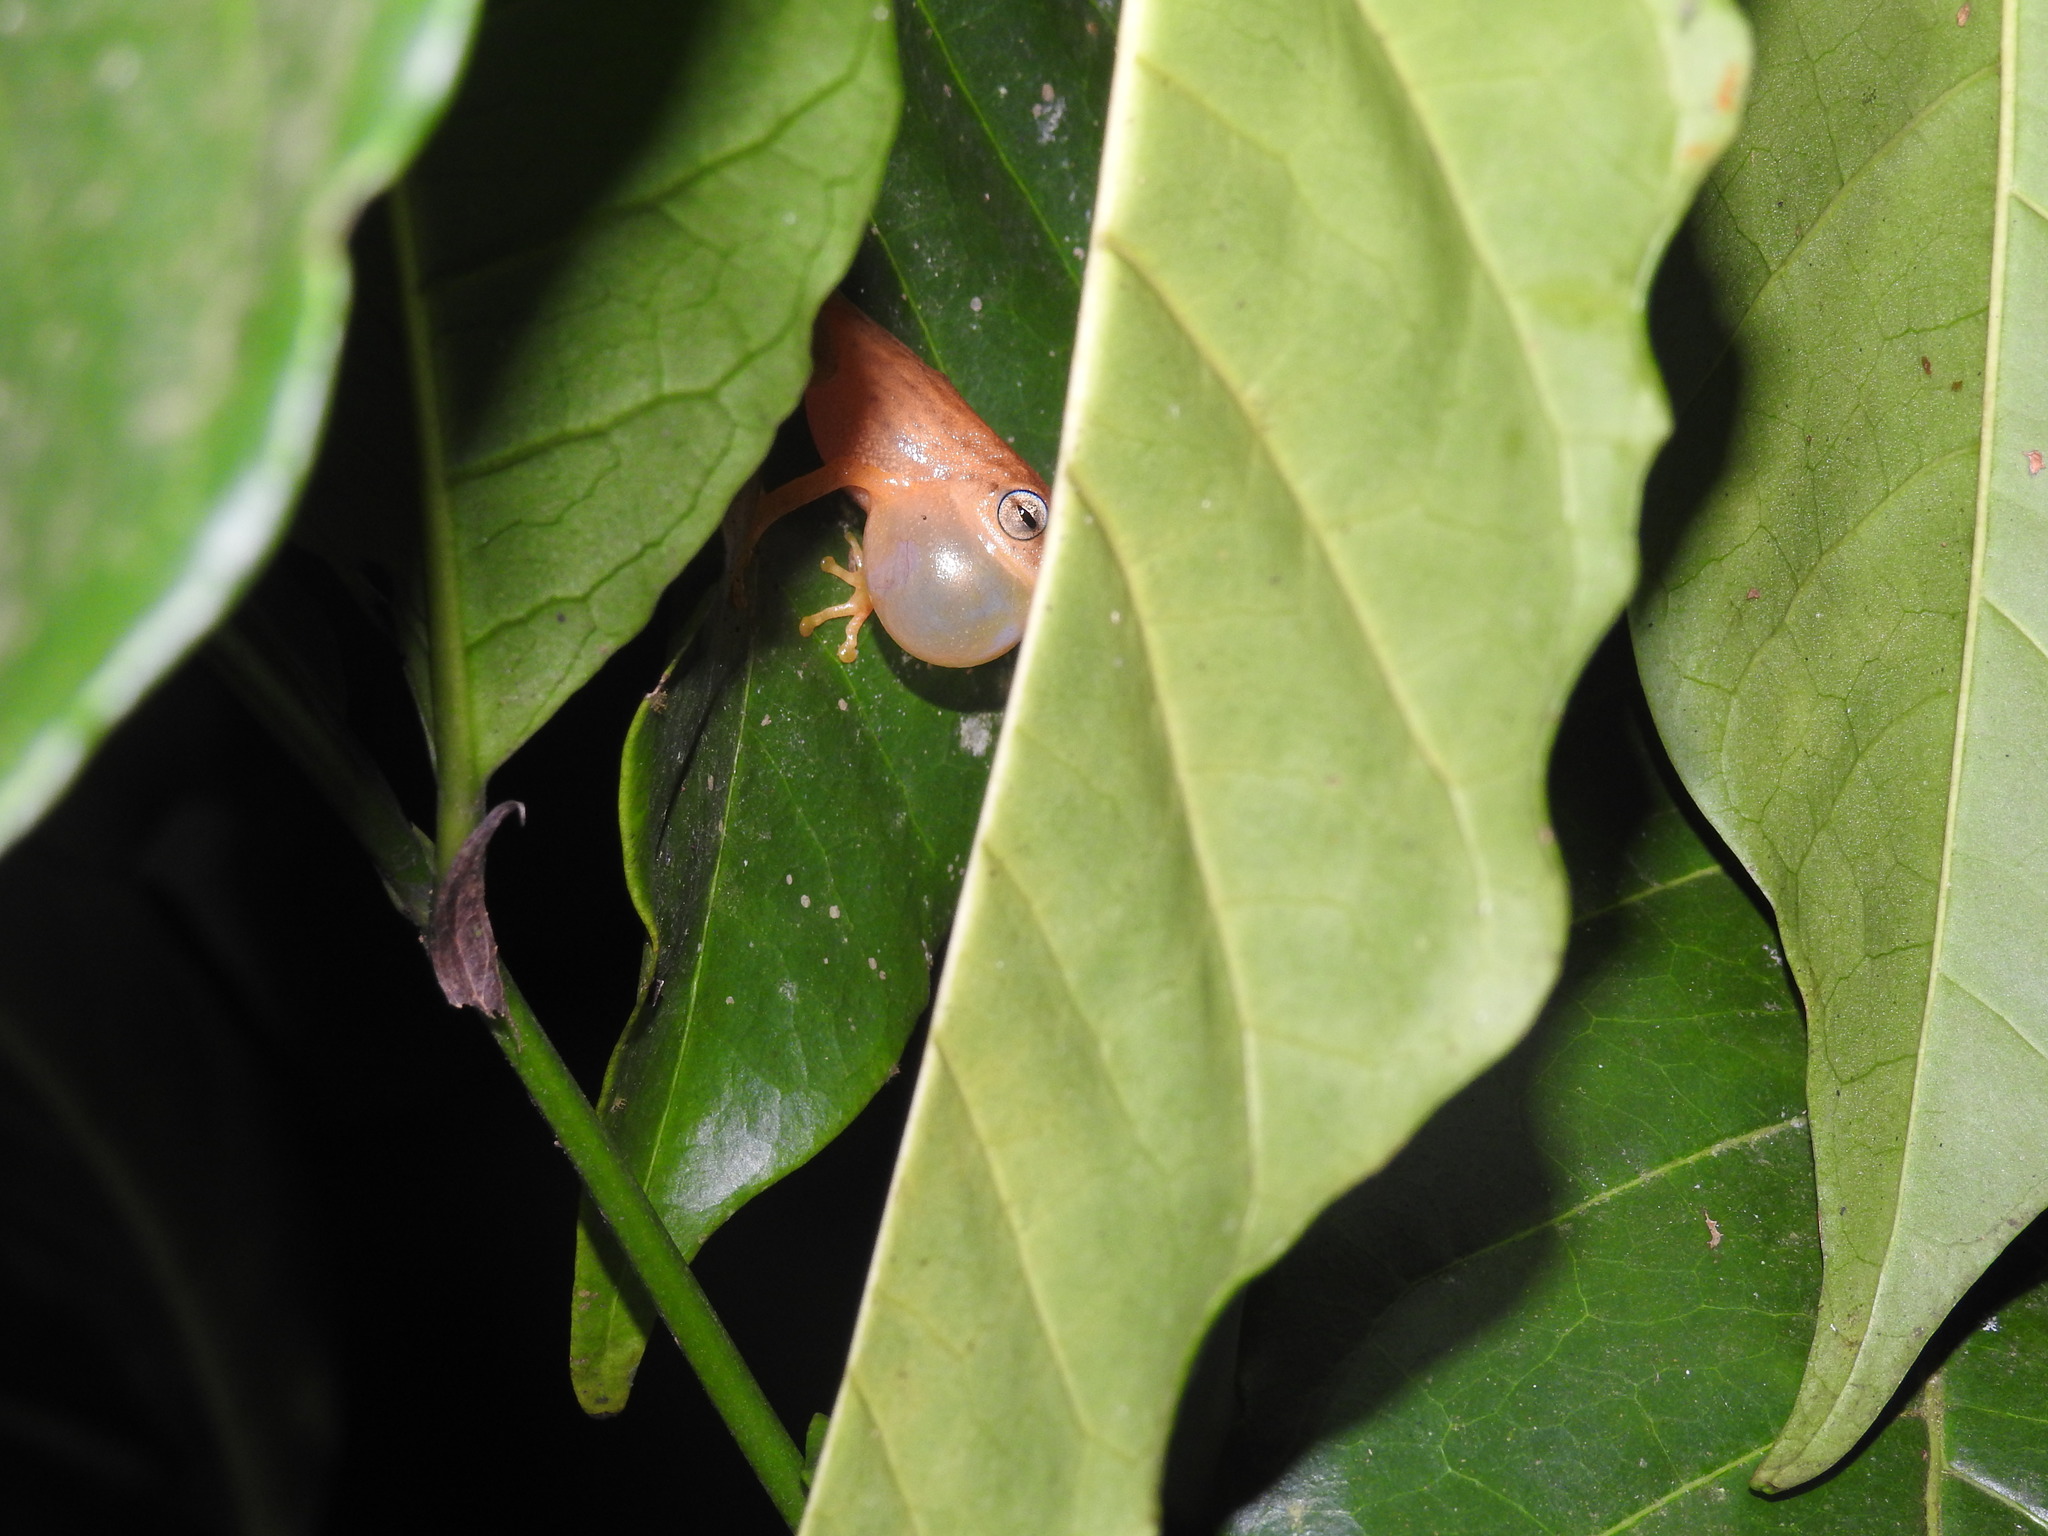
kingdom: Animalia
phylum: Chordata
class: Amphibia
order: Anura
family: Rhacophoridae
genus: Raorchestes
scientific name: Raorchestes luteolus
